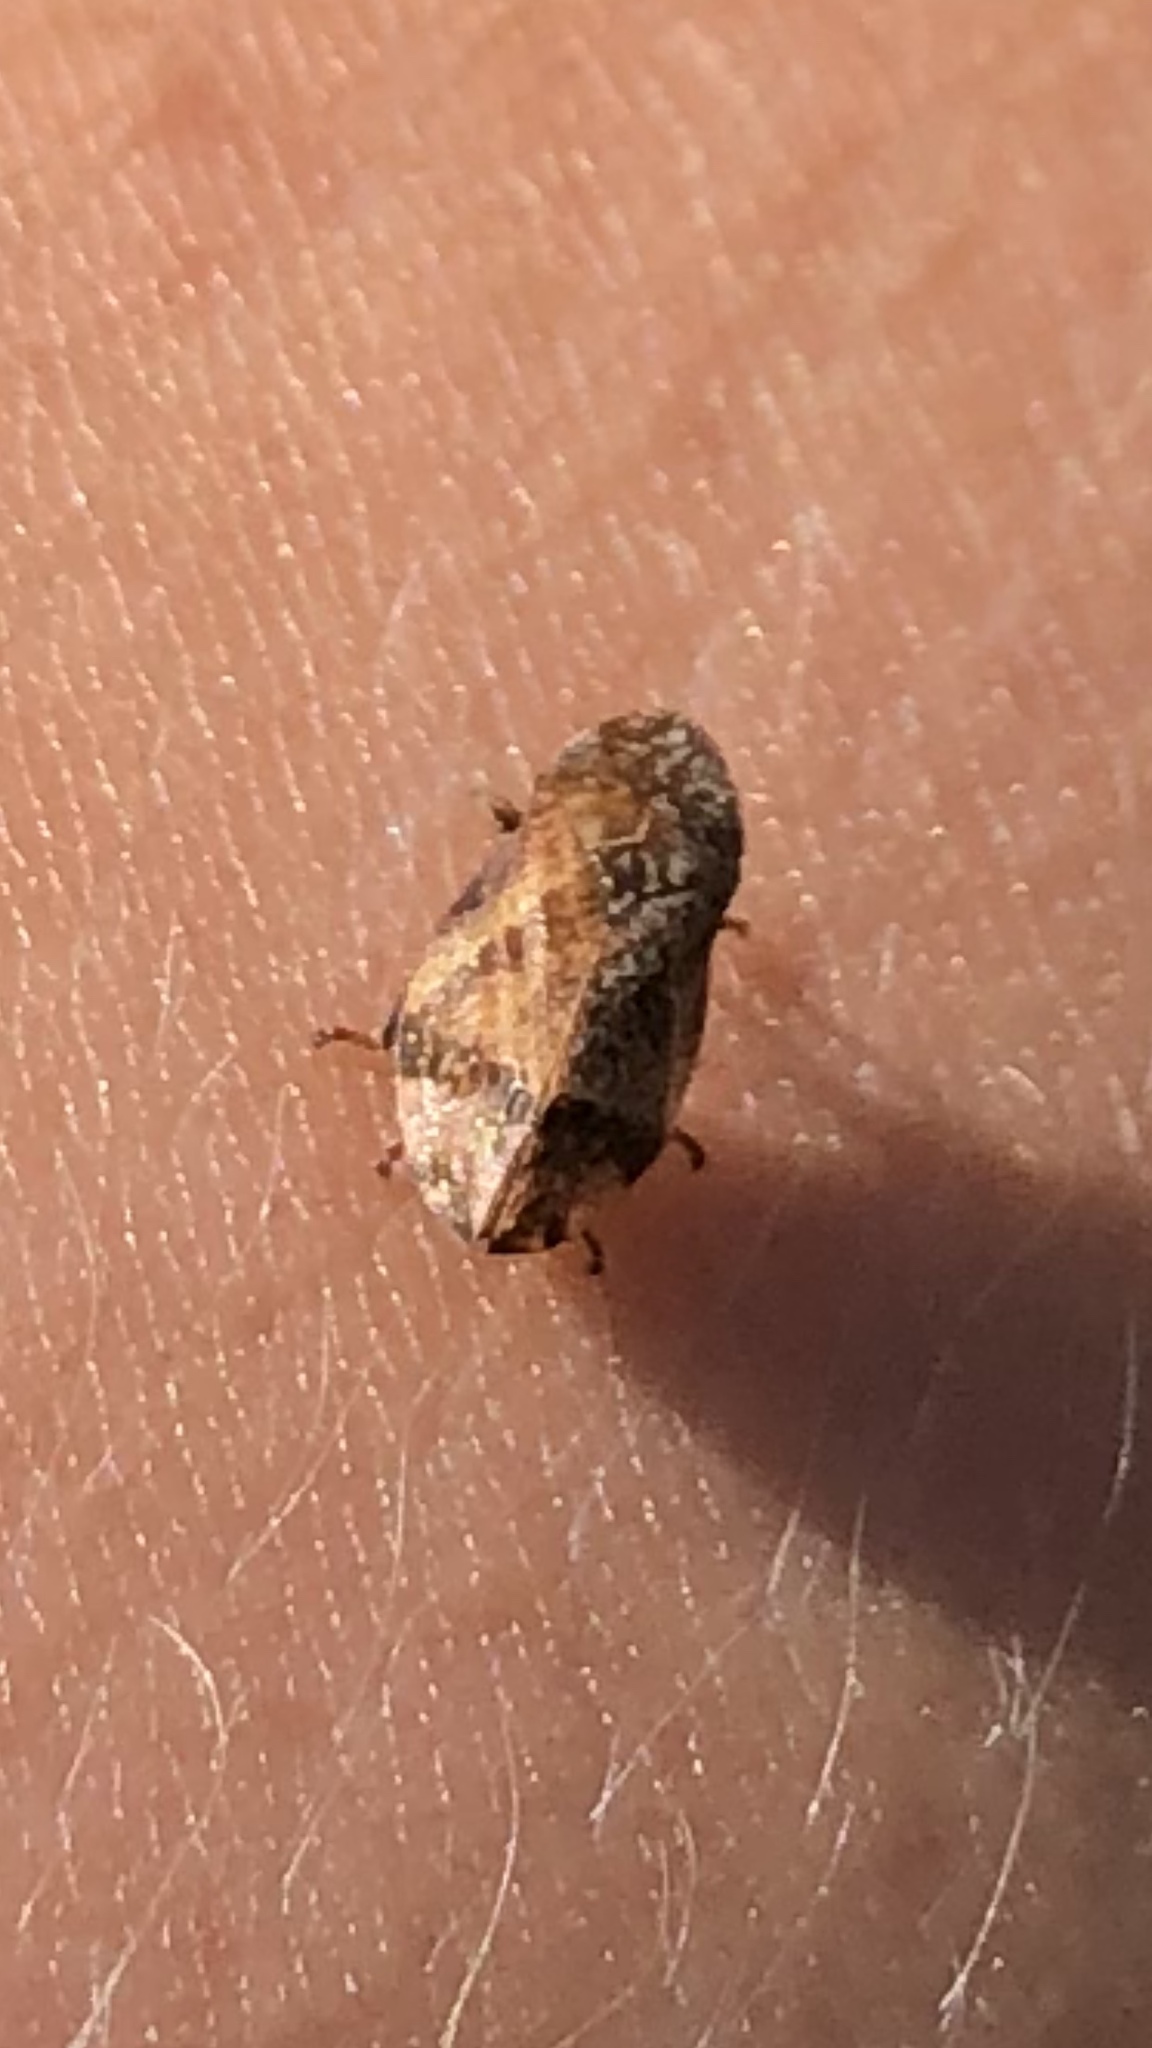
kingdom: Animalia
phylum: Arthropoda
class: Insecta
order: Hemiptera
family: Aphrophoridae
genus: Lepyronia
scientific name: Lepyronia quadrangularis
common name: Diamond-backed spittlebug
